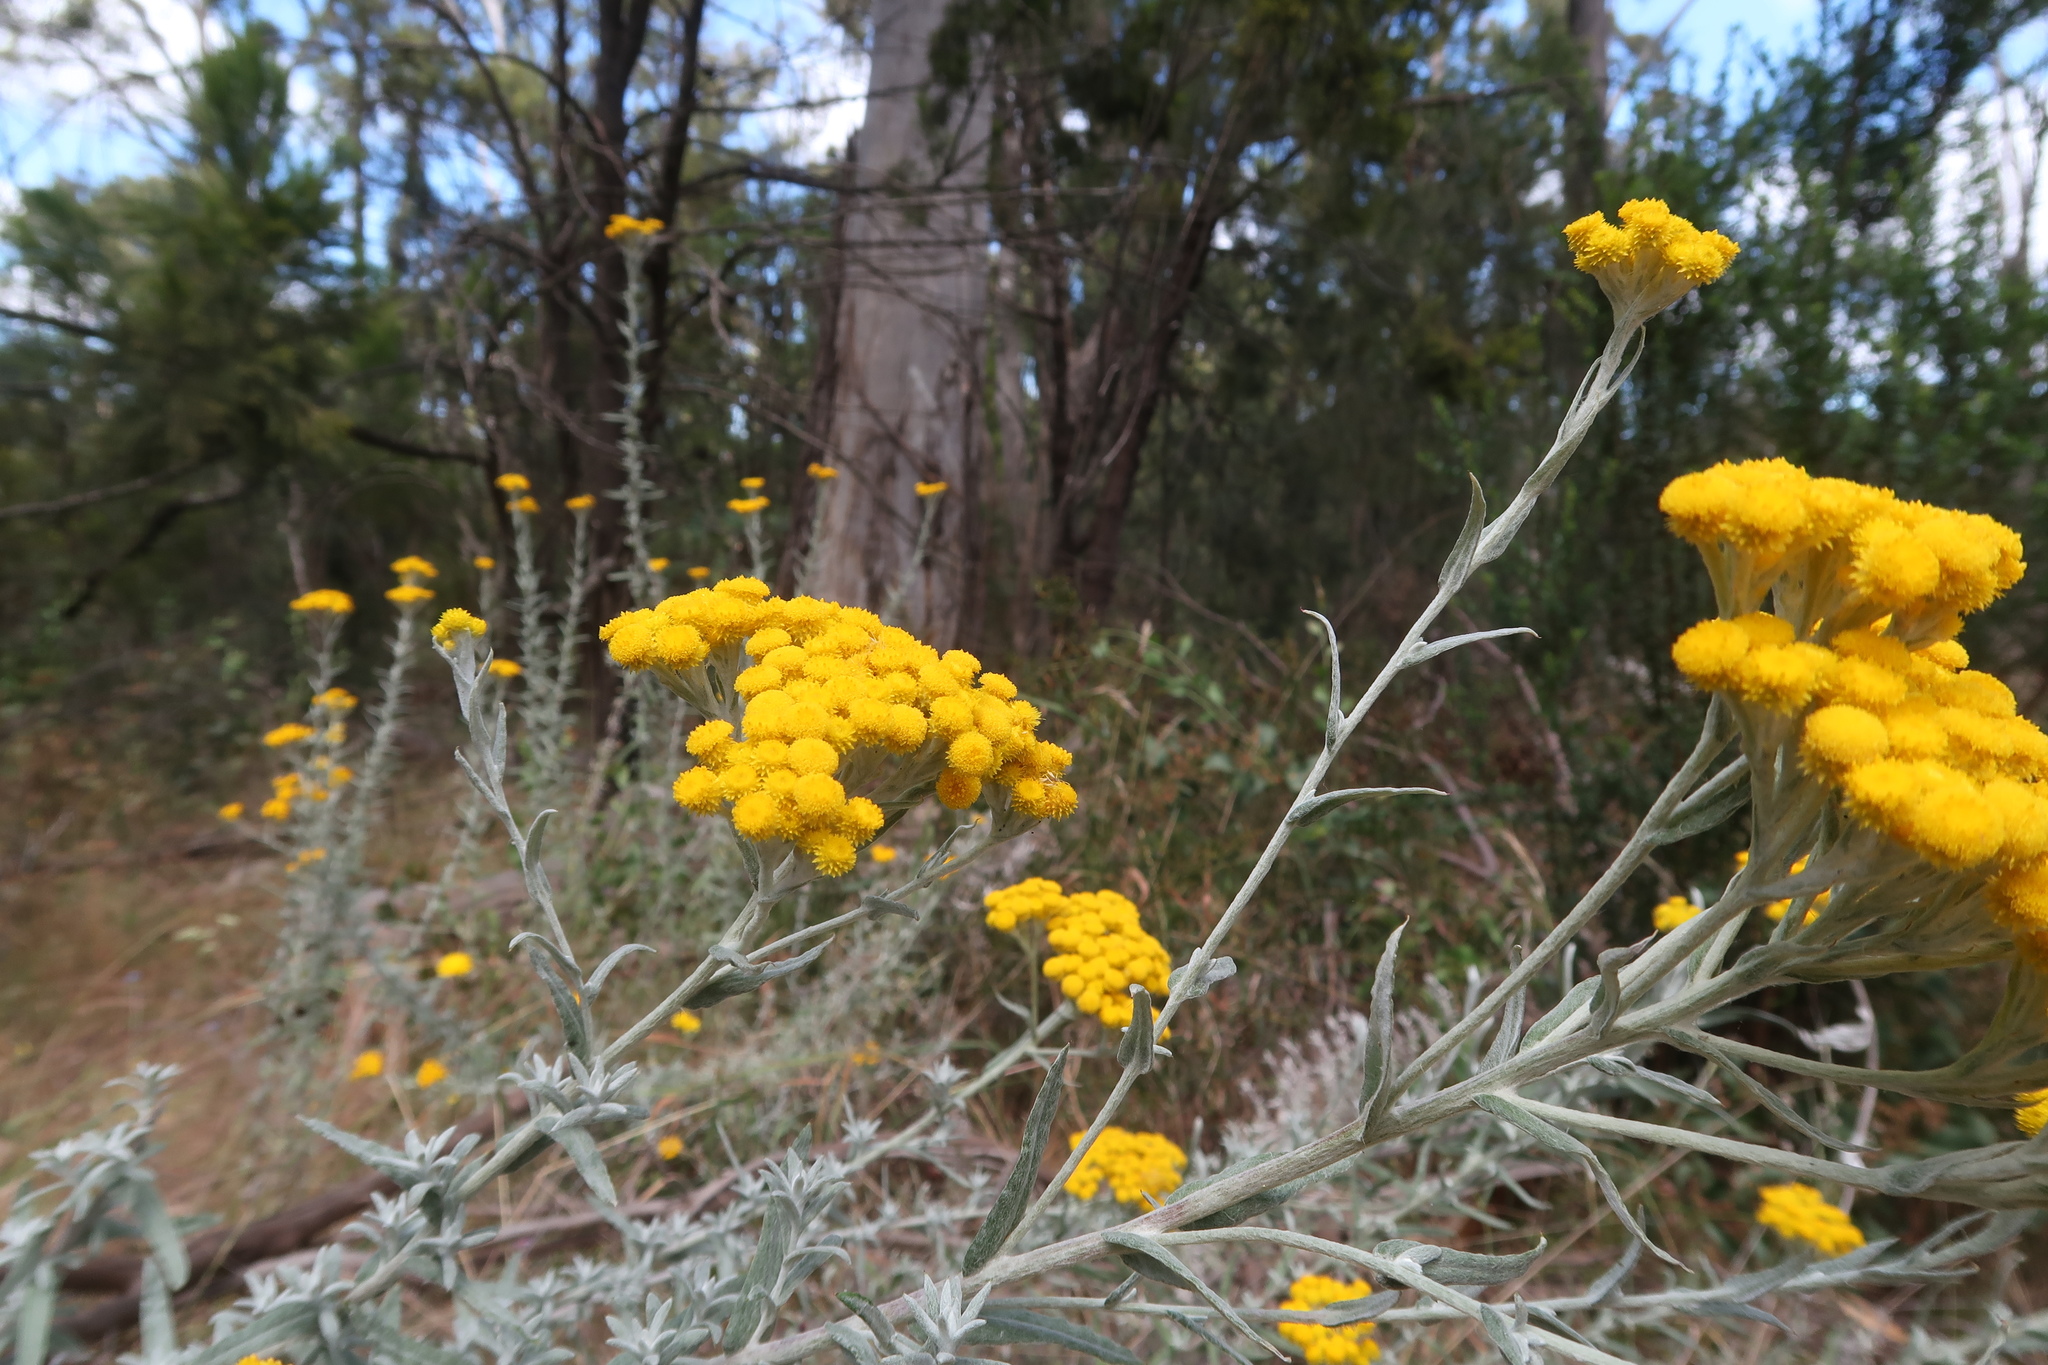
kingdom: Plantae
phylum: Tracheophyta
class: Magnoliopsida
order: Asterales
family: Asteraceae
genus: Chrysocephalum
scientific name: Chrysocephalum semipapposum
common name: Clustered everlasting
